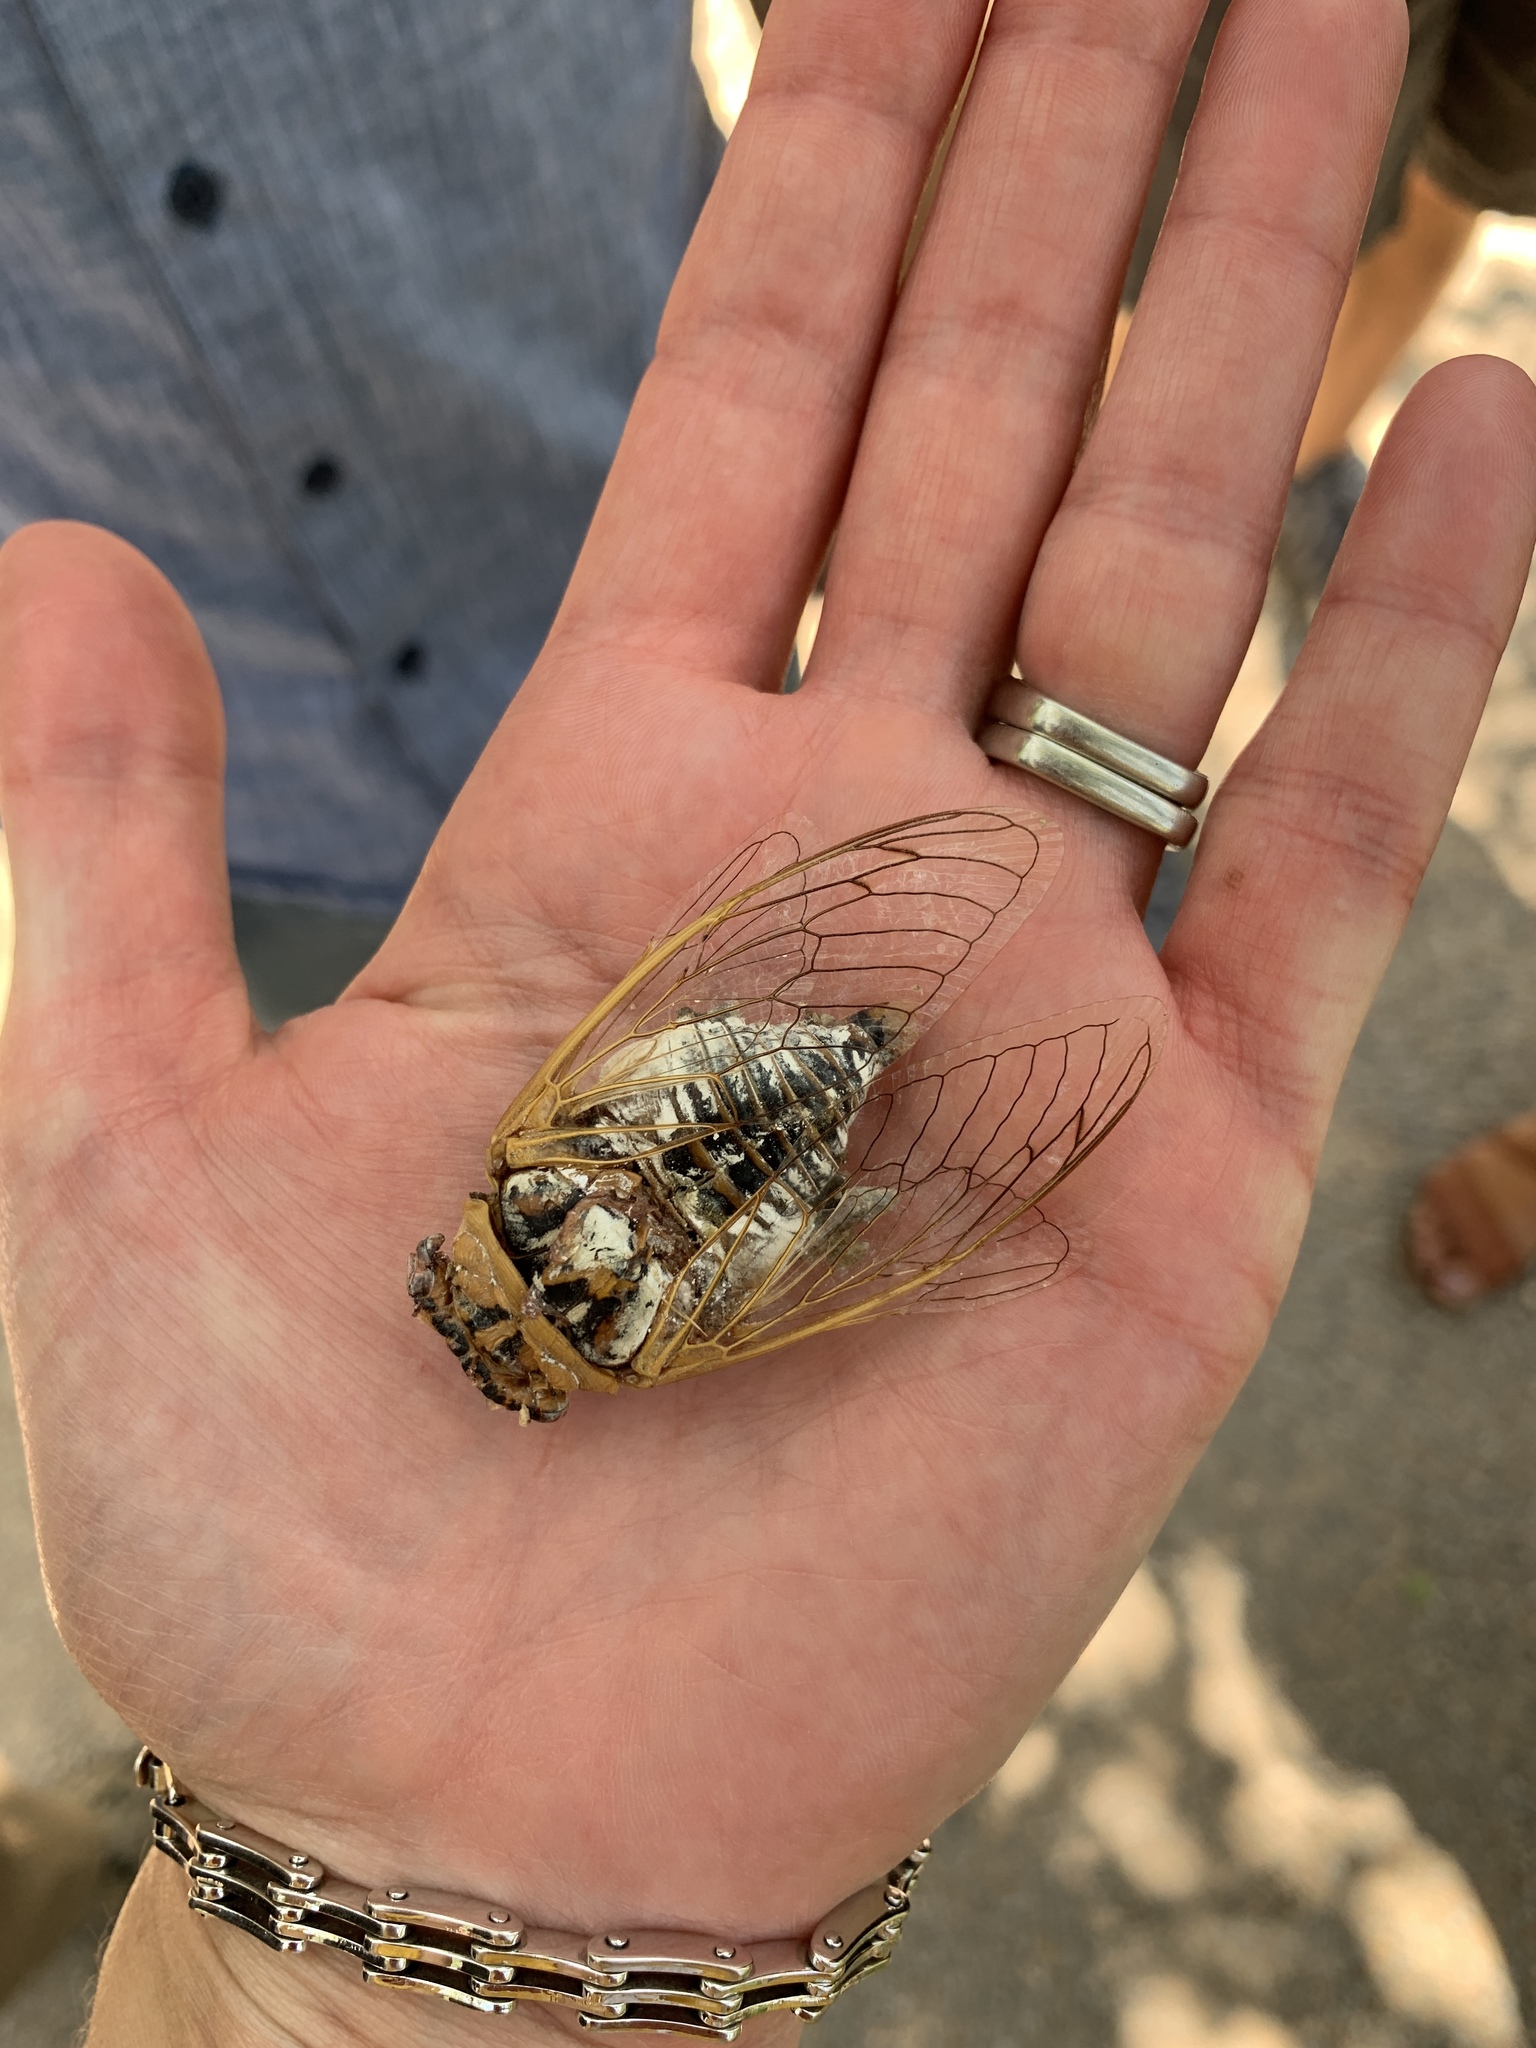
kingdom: Animalia
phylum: Arthropoda
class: Insecta
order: Hemiptera
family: Cicadidae
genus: Megatibicen
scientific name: Megatibicen dealbatus
